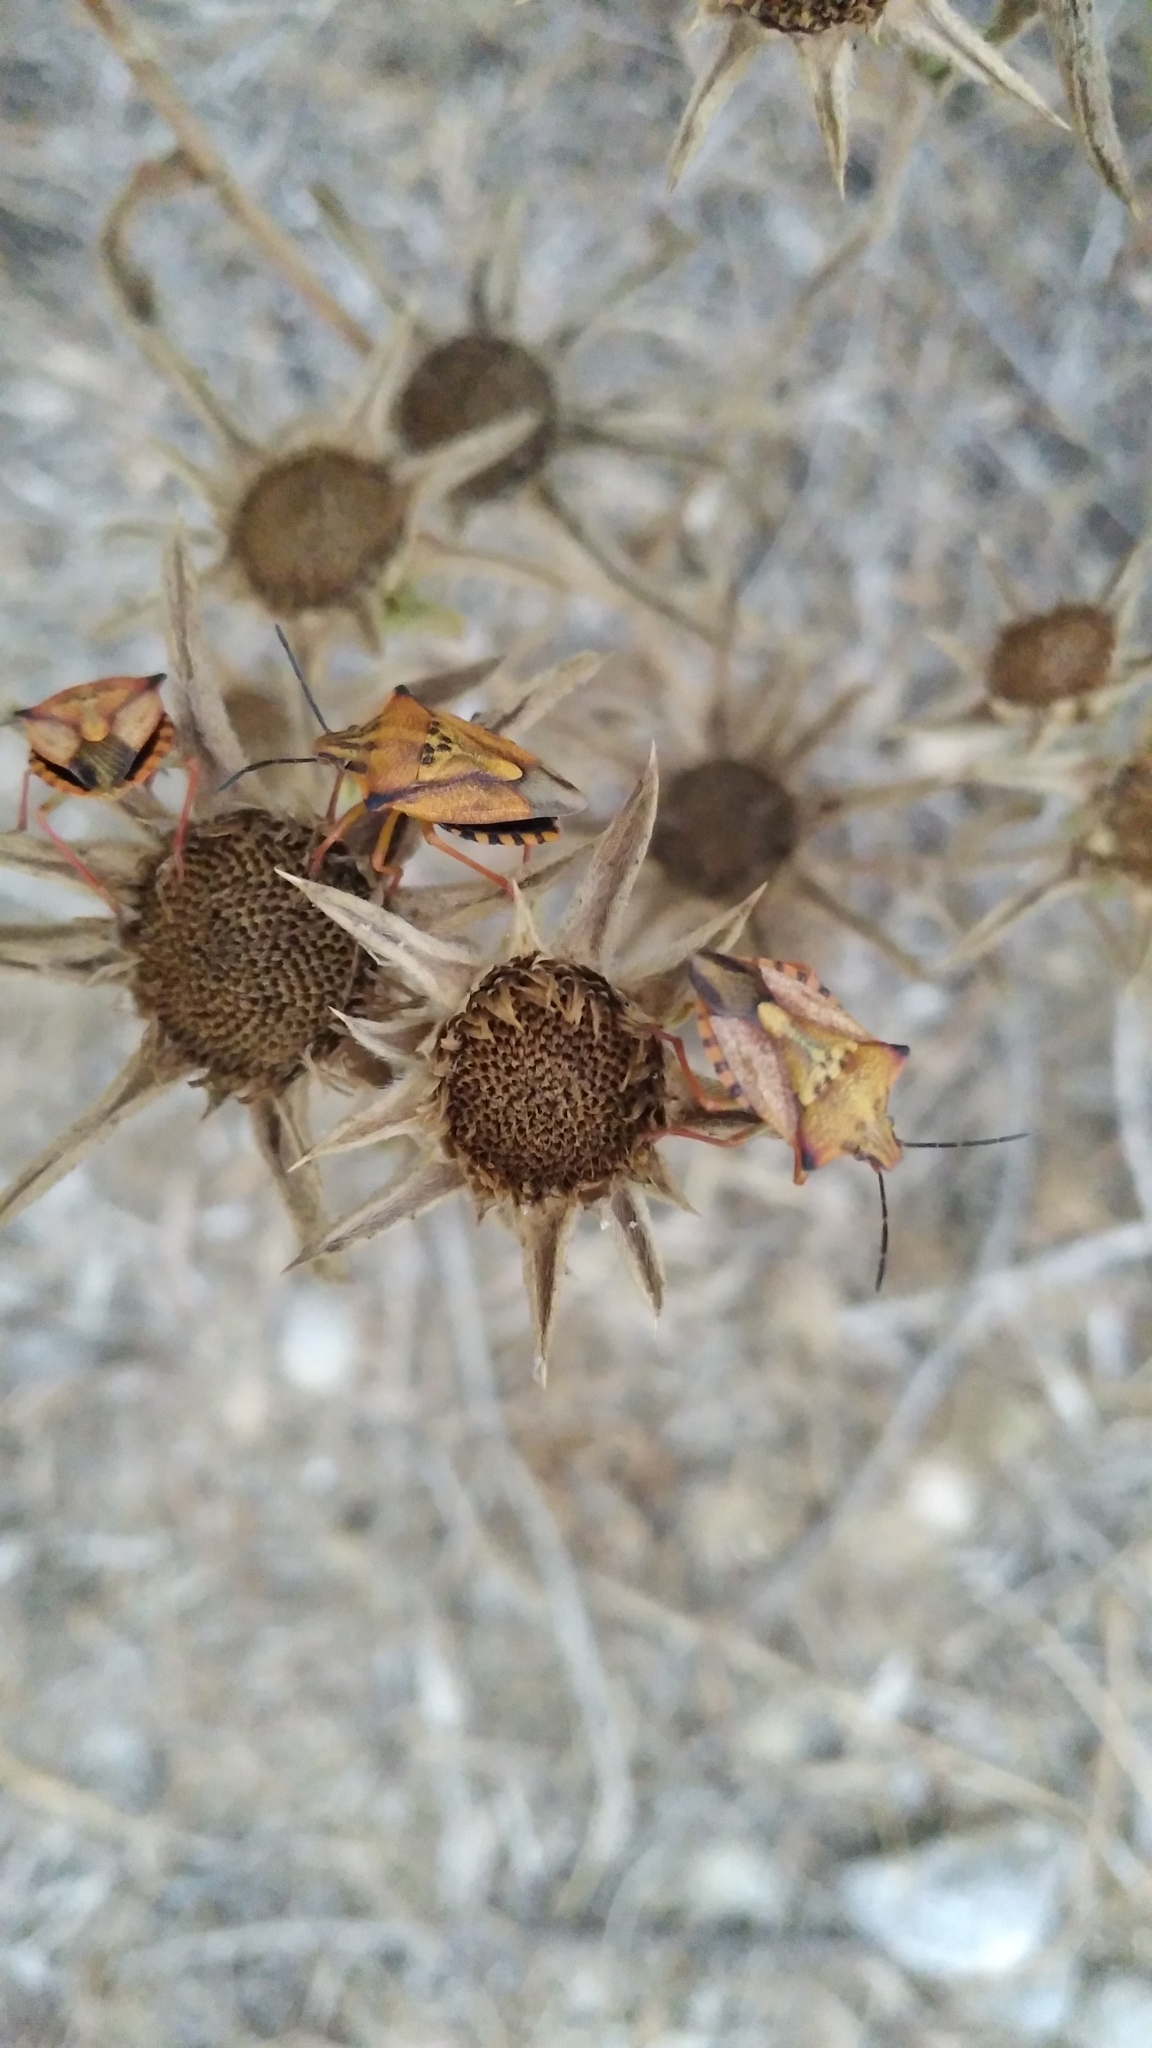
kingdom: Animalia
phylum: Arthropoda
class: Insecta
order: Hemiptera
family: Pentatomidae
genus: Carpocoris
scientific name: Carpocoris mediterraneus
